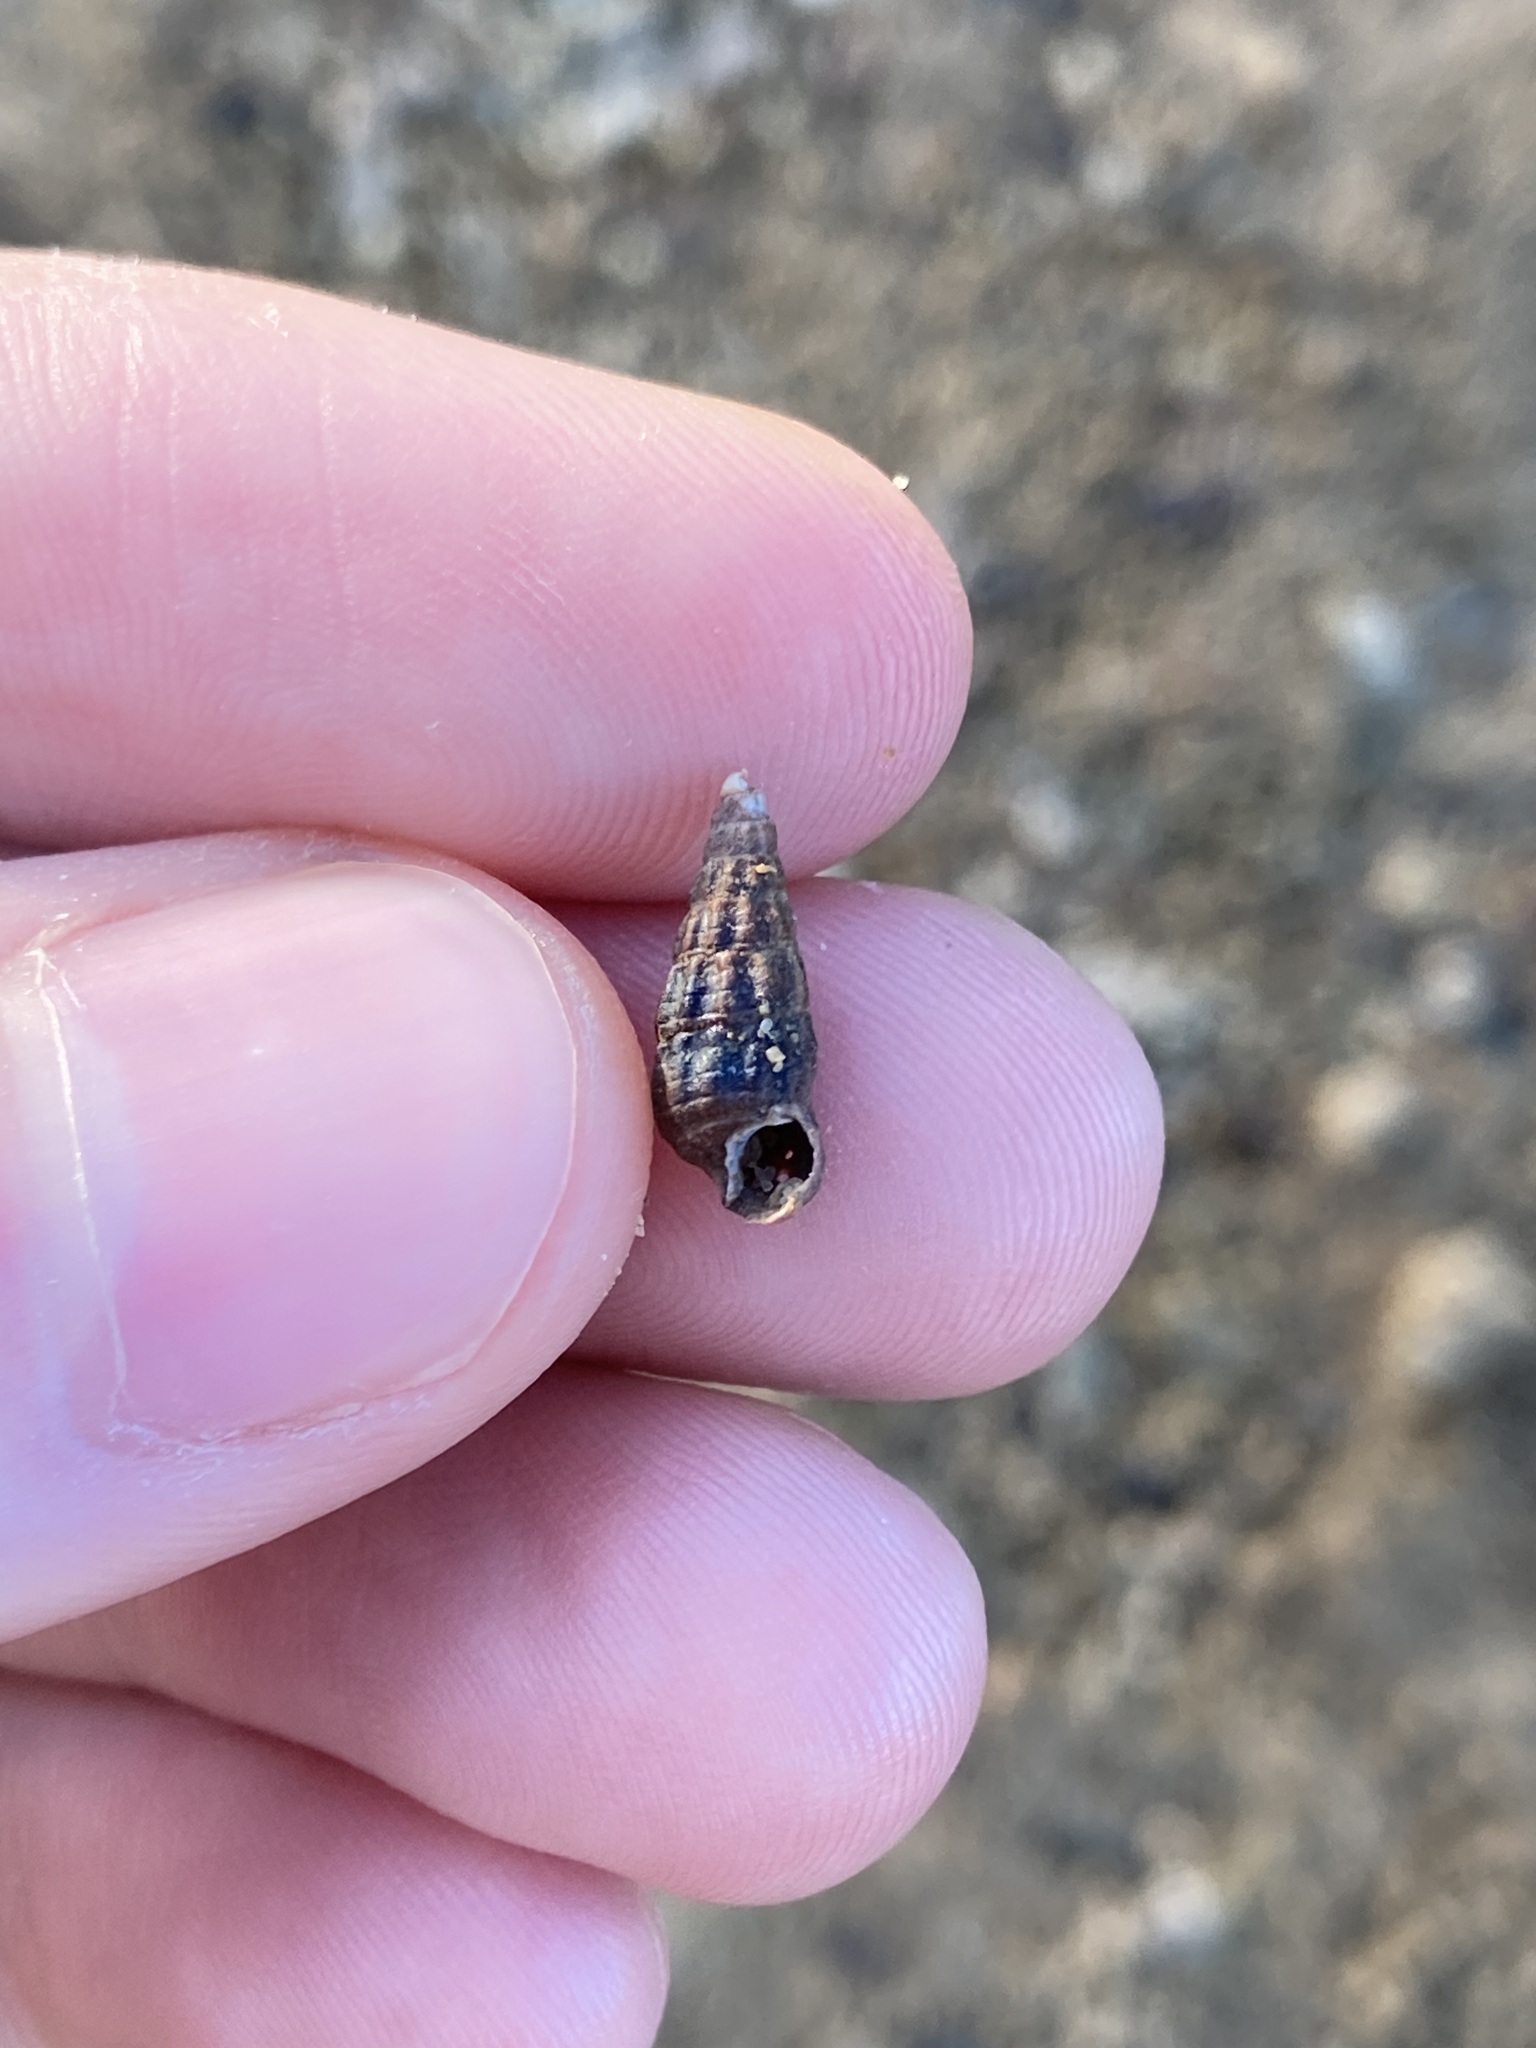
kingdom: Animalia
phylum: Mollusca
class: Gastropoda
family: Batillariidae
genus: Zeacumantus
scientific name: Zeacumantus subcarinatus
